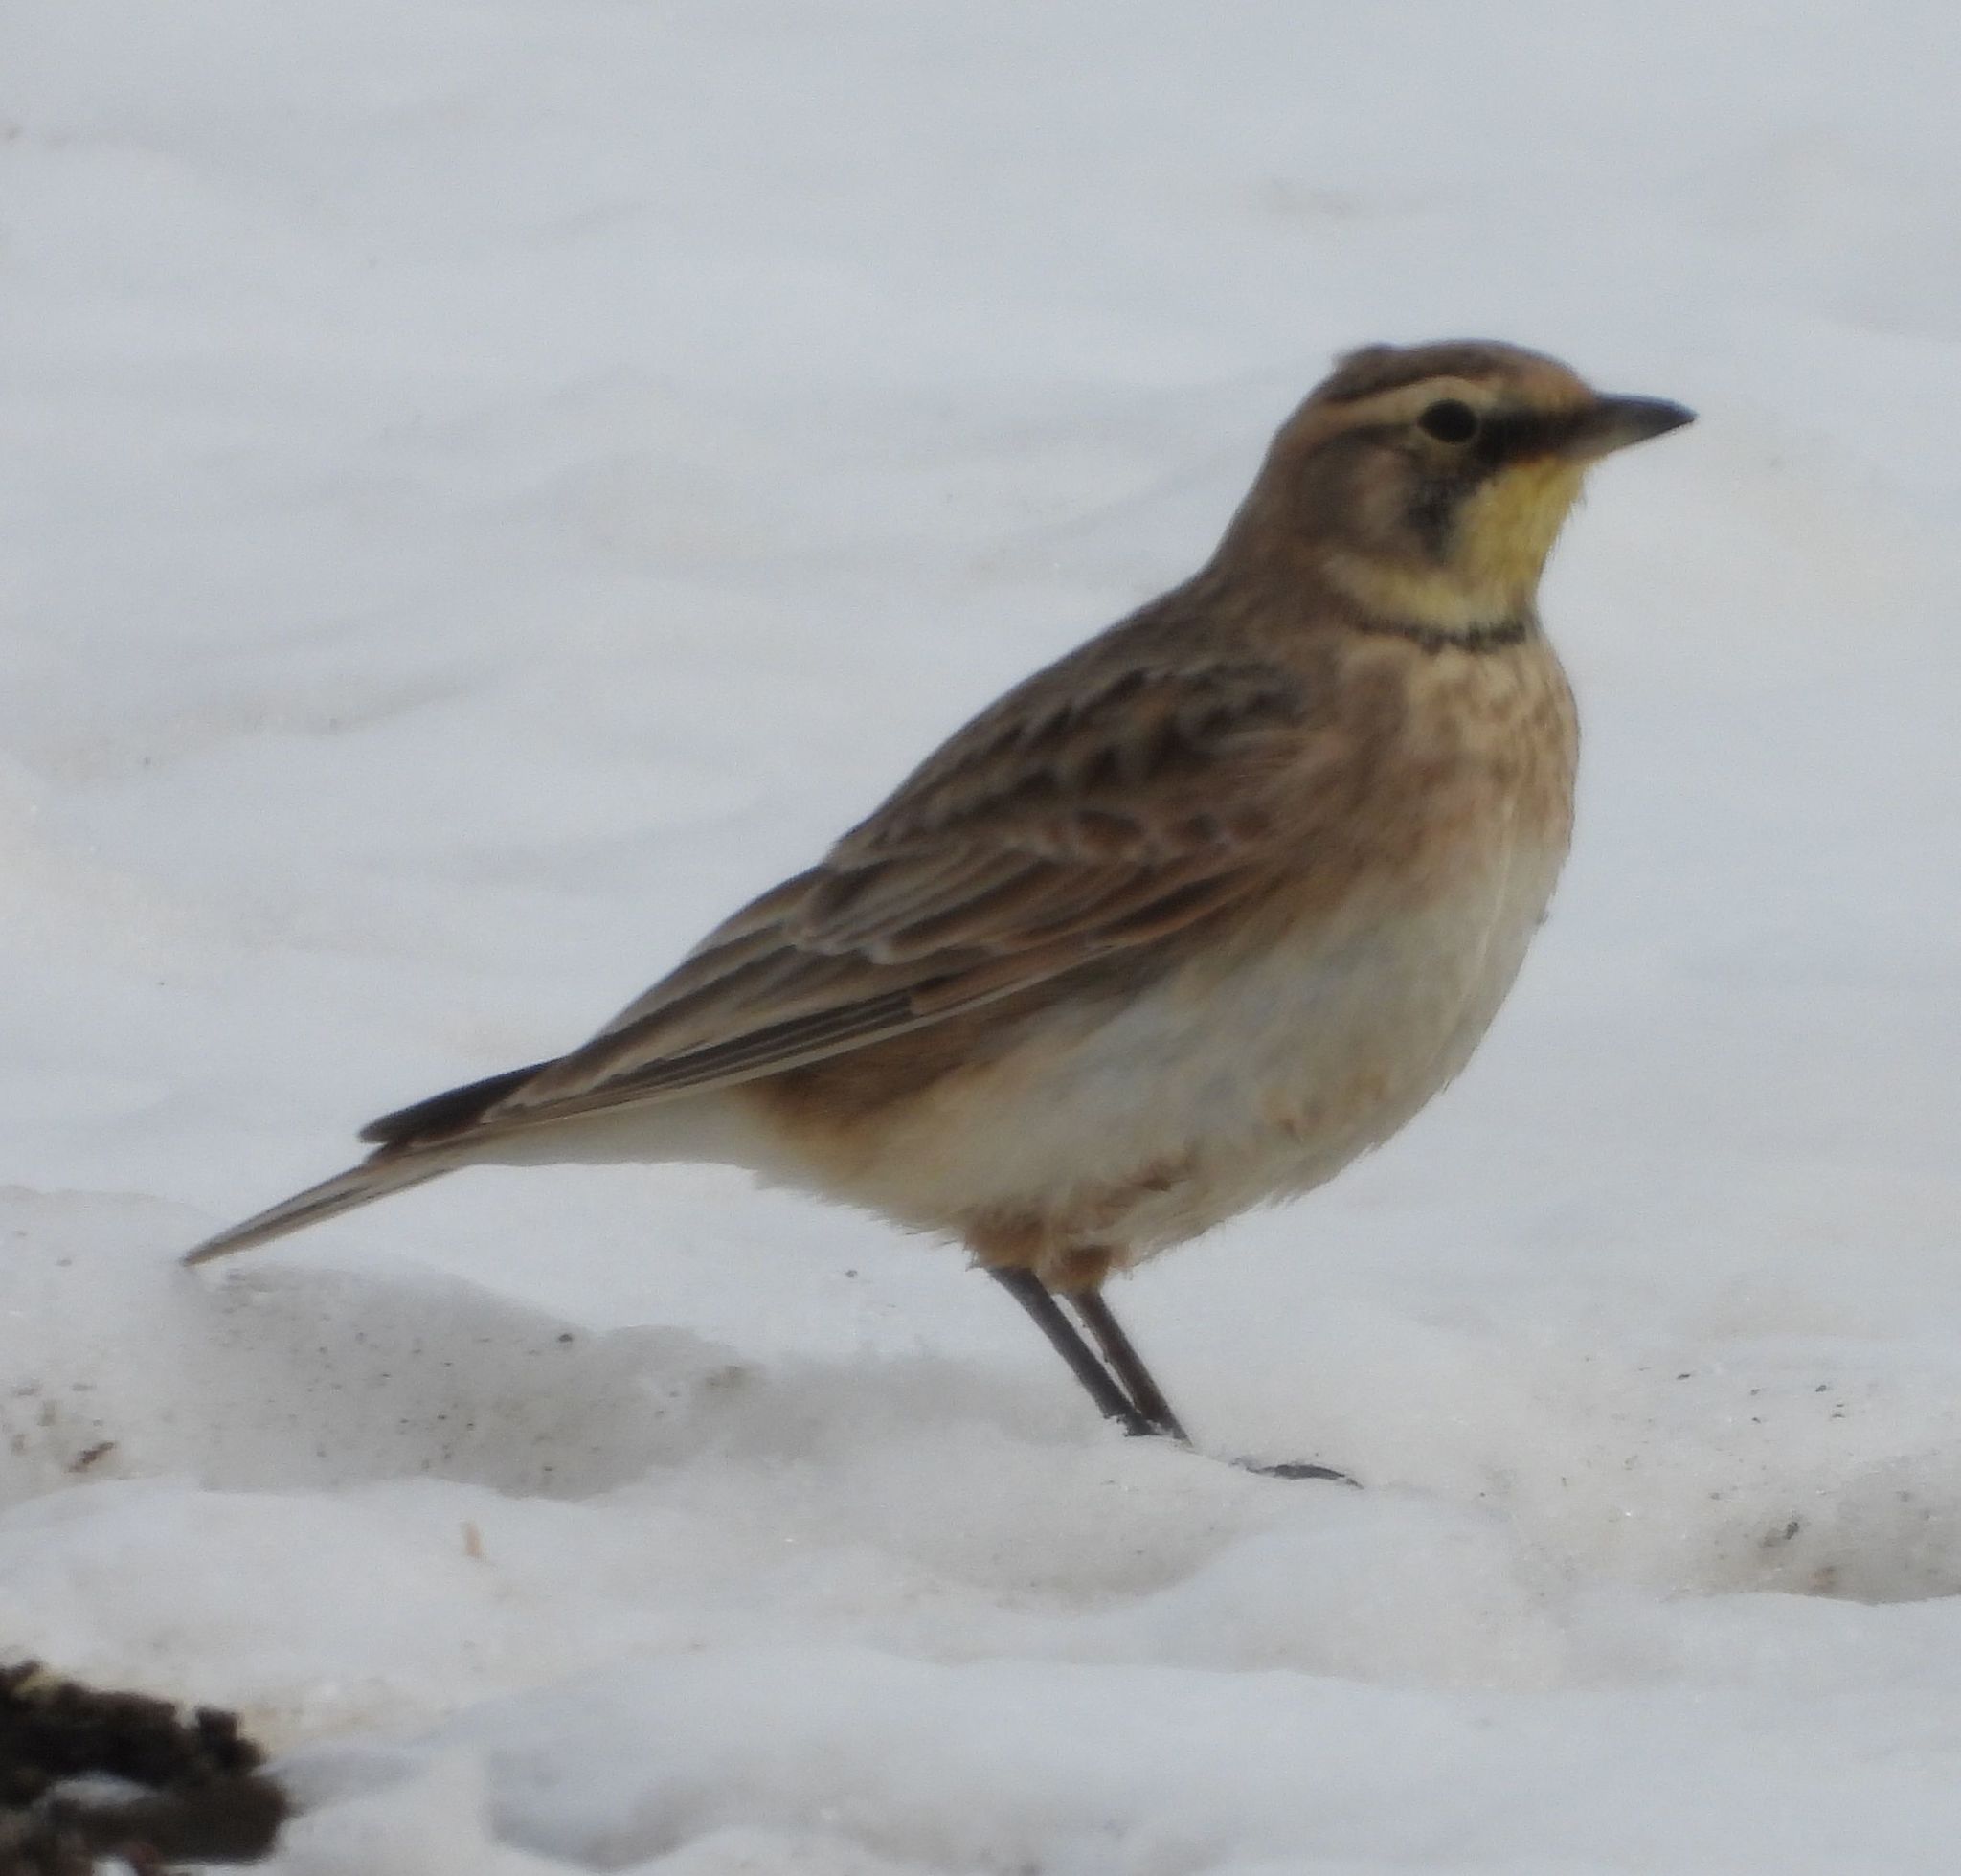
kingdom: Animalia
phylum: Chordata
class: Aves
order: Passeriformes
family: Alaudidae
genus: Eremophila
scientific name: Eremophila alpestris
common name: Horned lark
